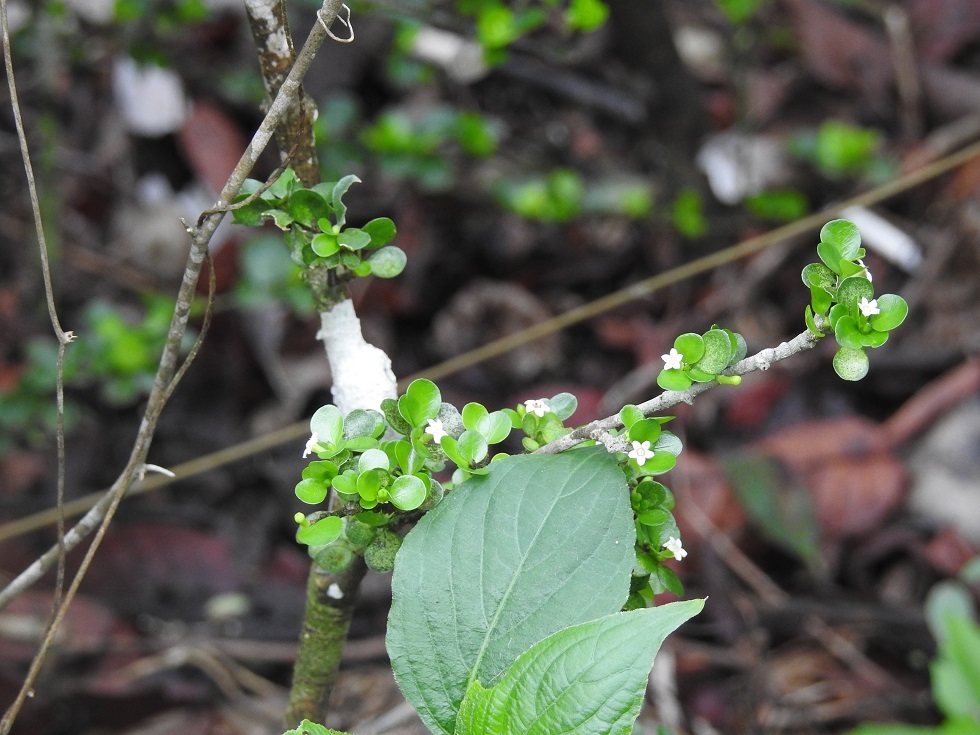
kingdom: Plantae
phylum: Tracheophyta
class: Magnoliopsida
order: Gentianales
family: Rubiaceae
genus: Randia
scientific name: Randia cookii
